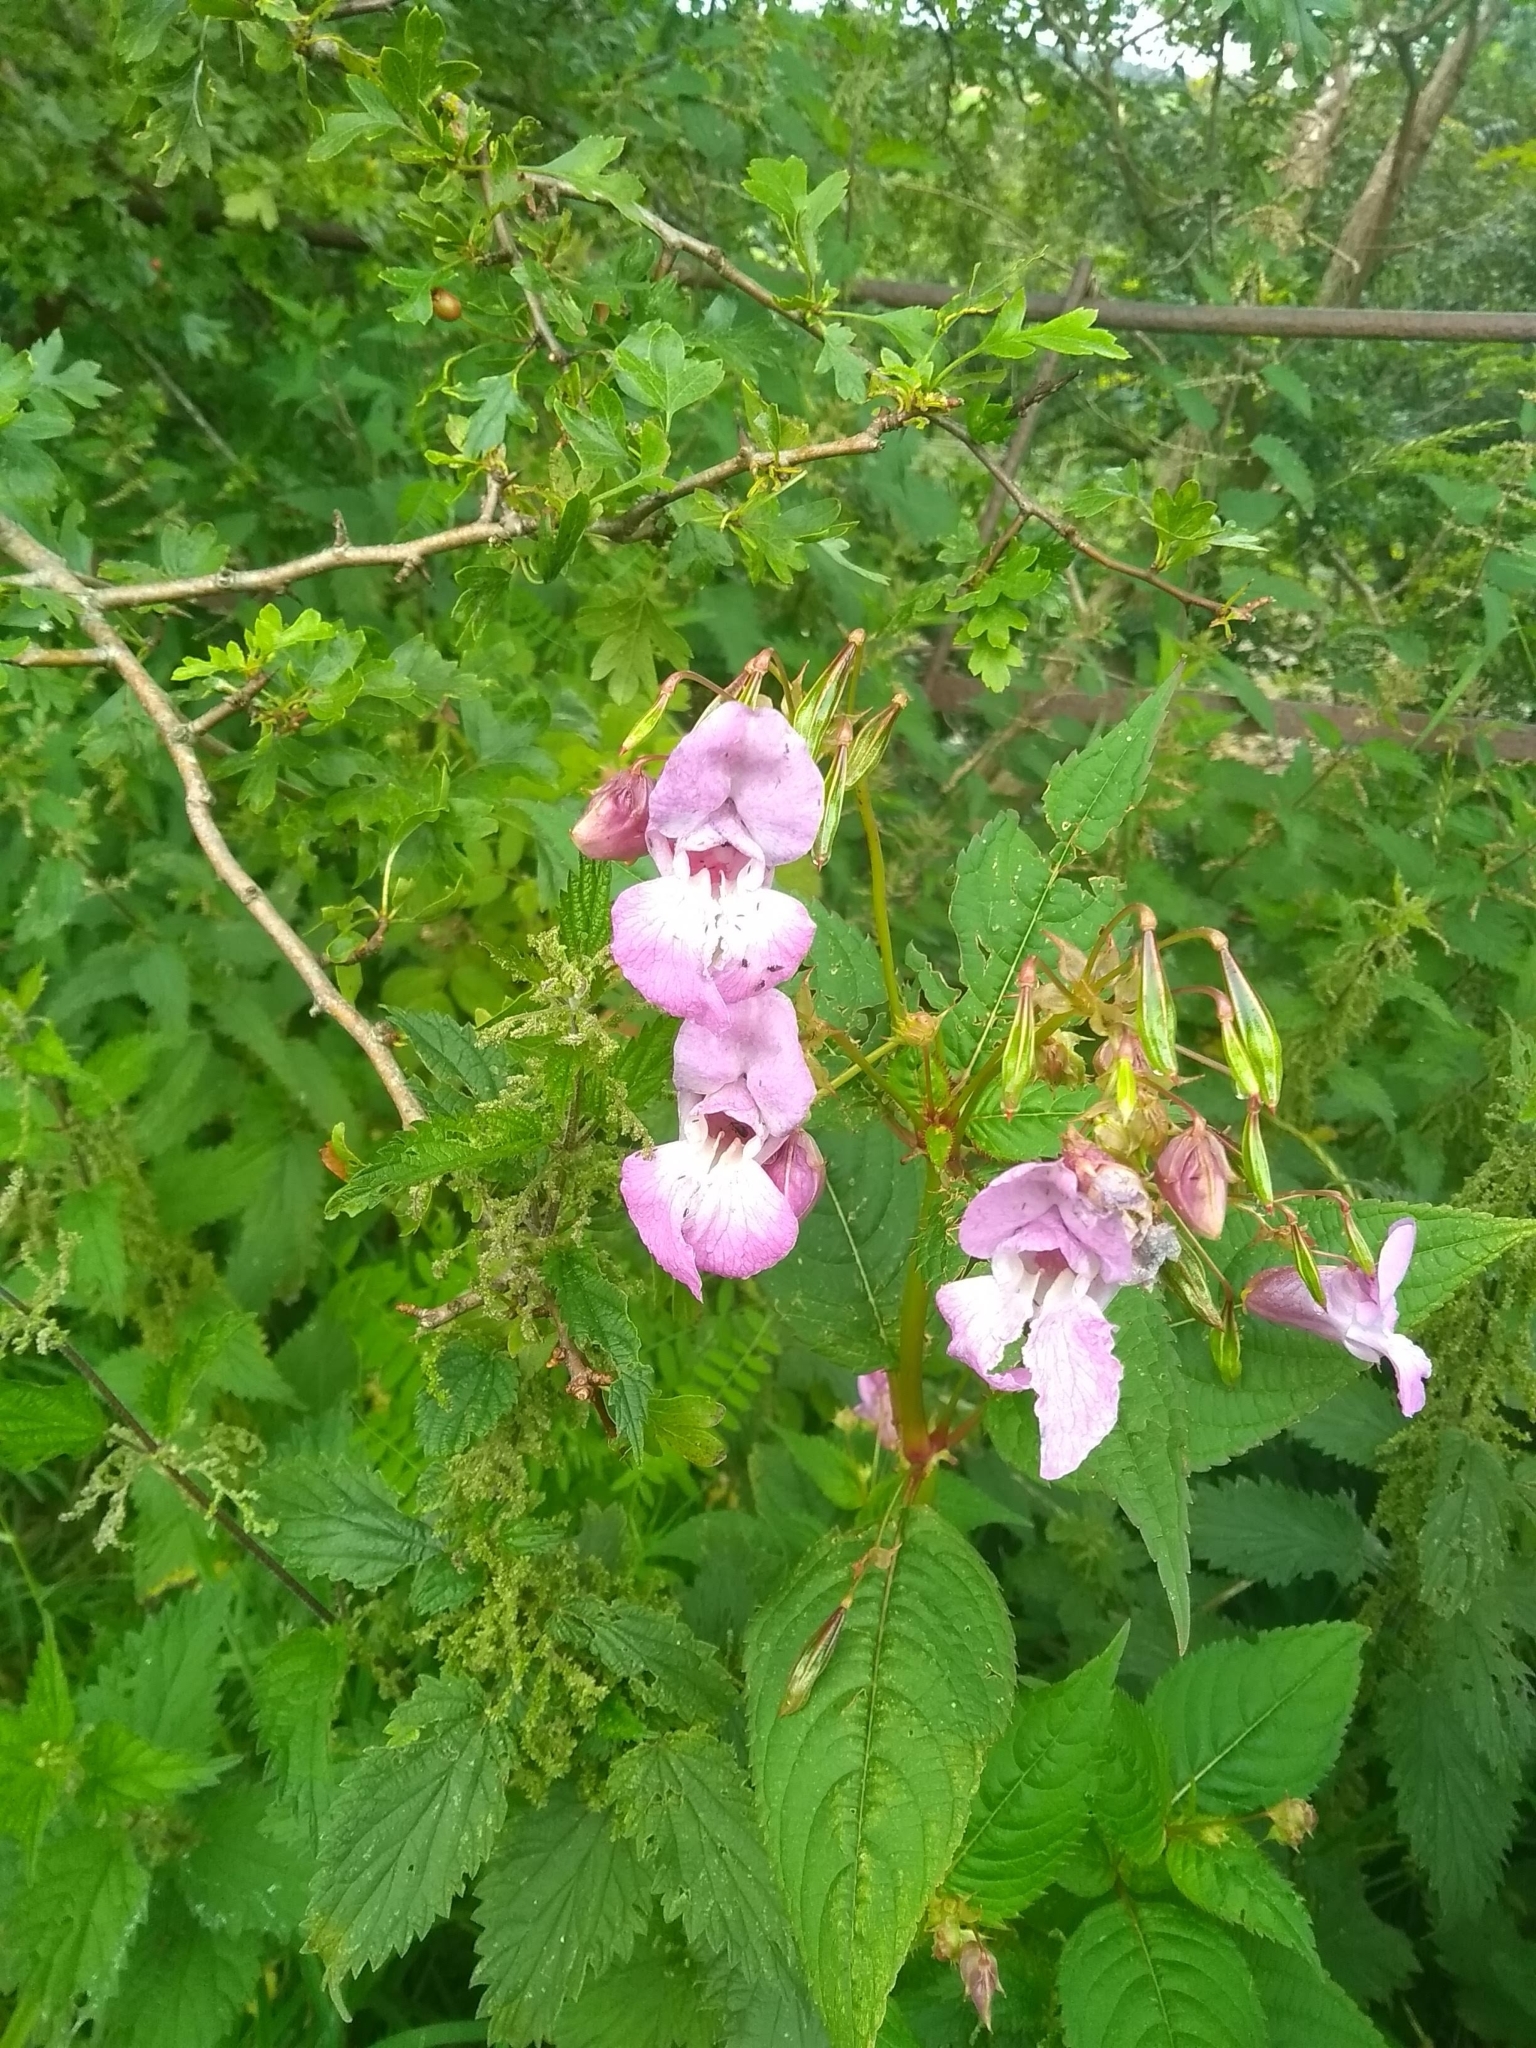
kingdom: Plantae
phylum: Tracheophyta
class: Magnoliopsida
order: Ericales
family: Balsaminaceae
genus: Impatiens
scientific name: Impatiens glandulifera
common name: Himalayan balsam
